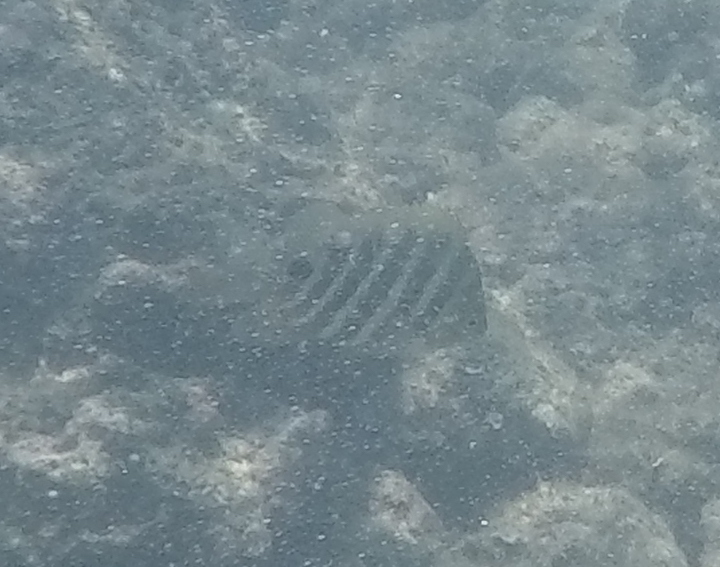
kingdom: Animalia
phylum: Chordata
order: Perciformes
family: Pomacentridae
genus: Abudefduf
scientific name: Abudefduf sordidus
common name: Blackspot sergeant
